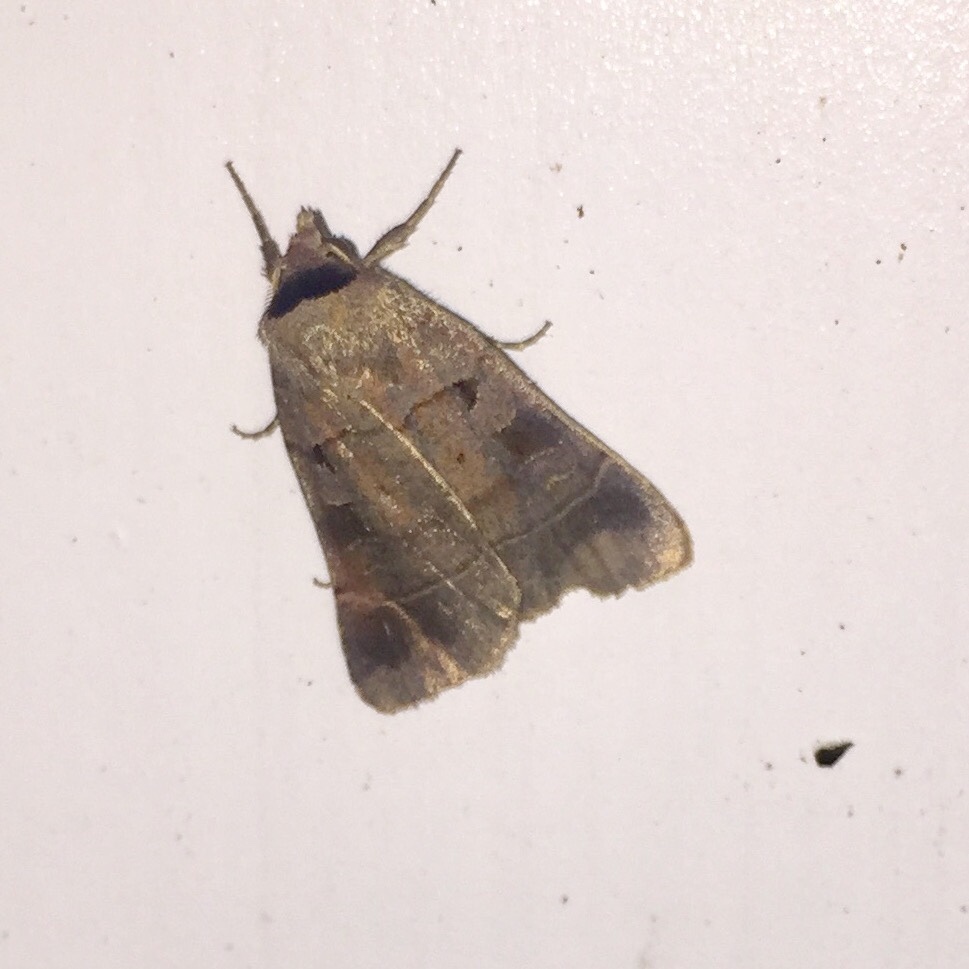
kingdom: Animalia
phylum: Arthropoda
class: Insecta
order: Lepidoptera
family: Noctuidae
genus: Agnorisma
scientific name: Agnorisma badinodis
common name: Pale-banded dart
